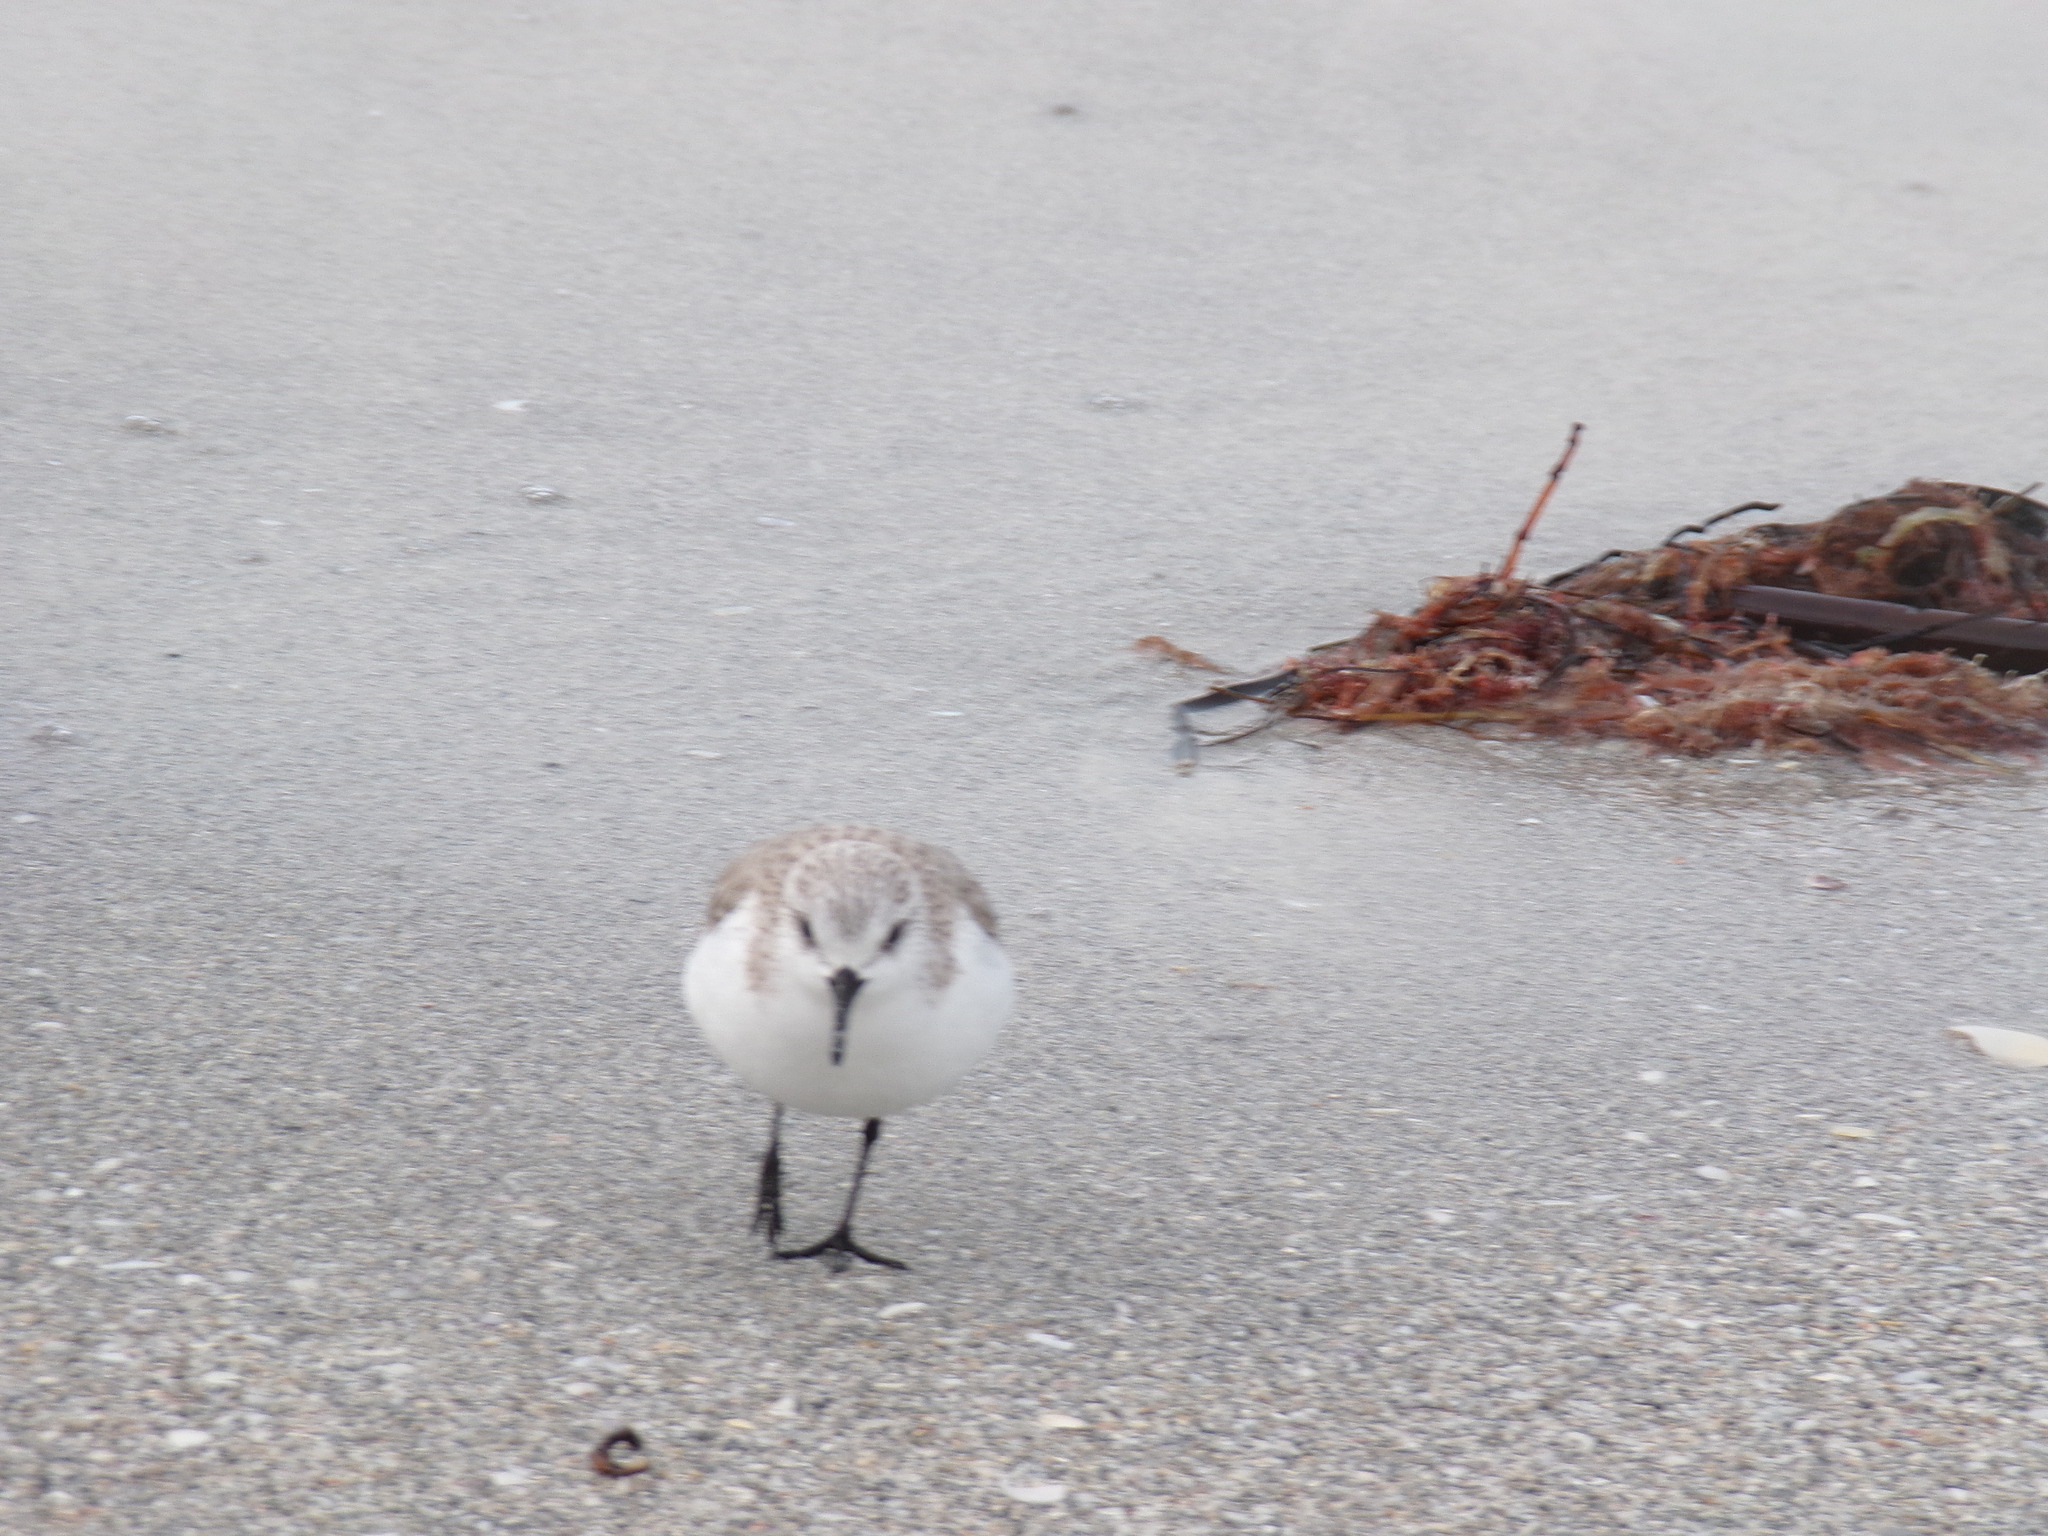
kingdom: Animalia
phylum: Chordata
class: Aves
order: Charadriiformes
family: Scolopacidae
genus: Calidris
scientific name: Calidris alba
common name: Sanderling
